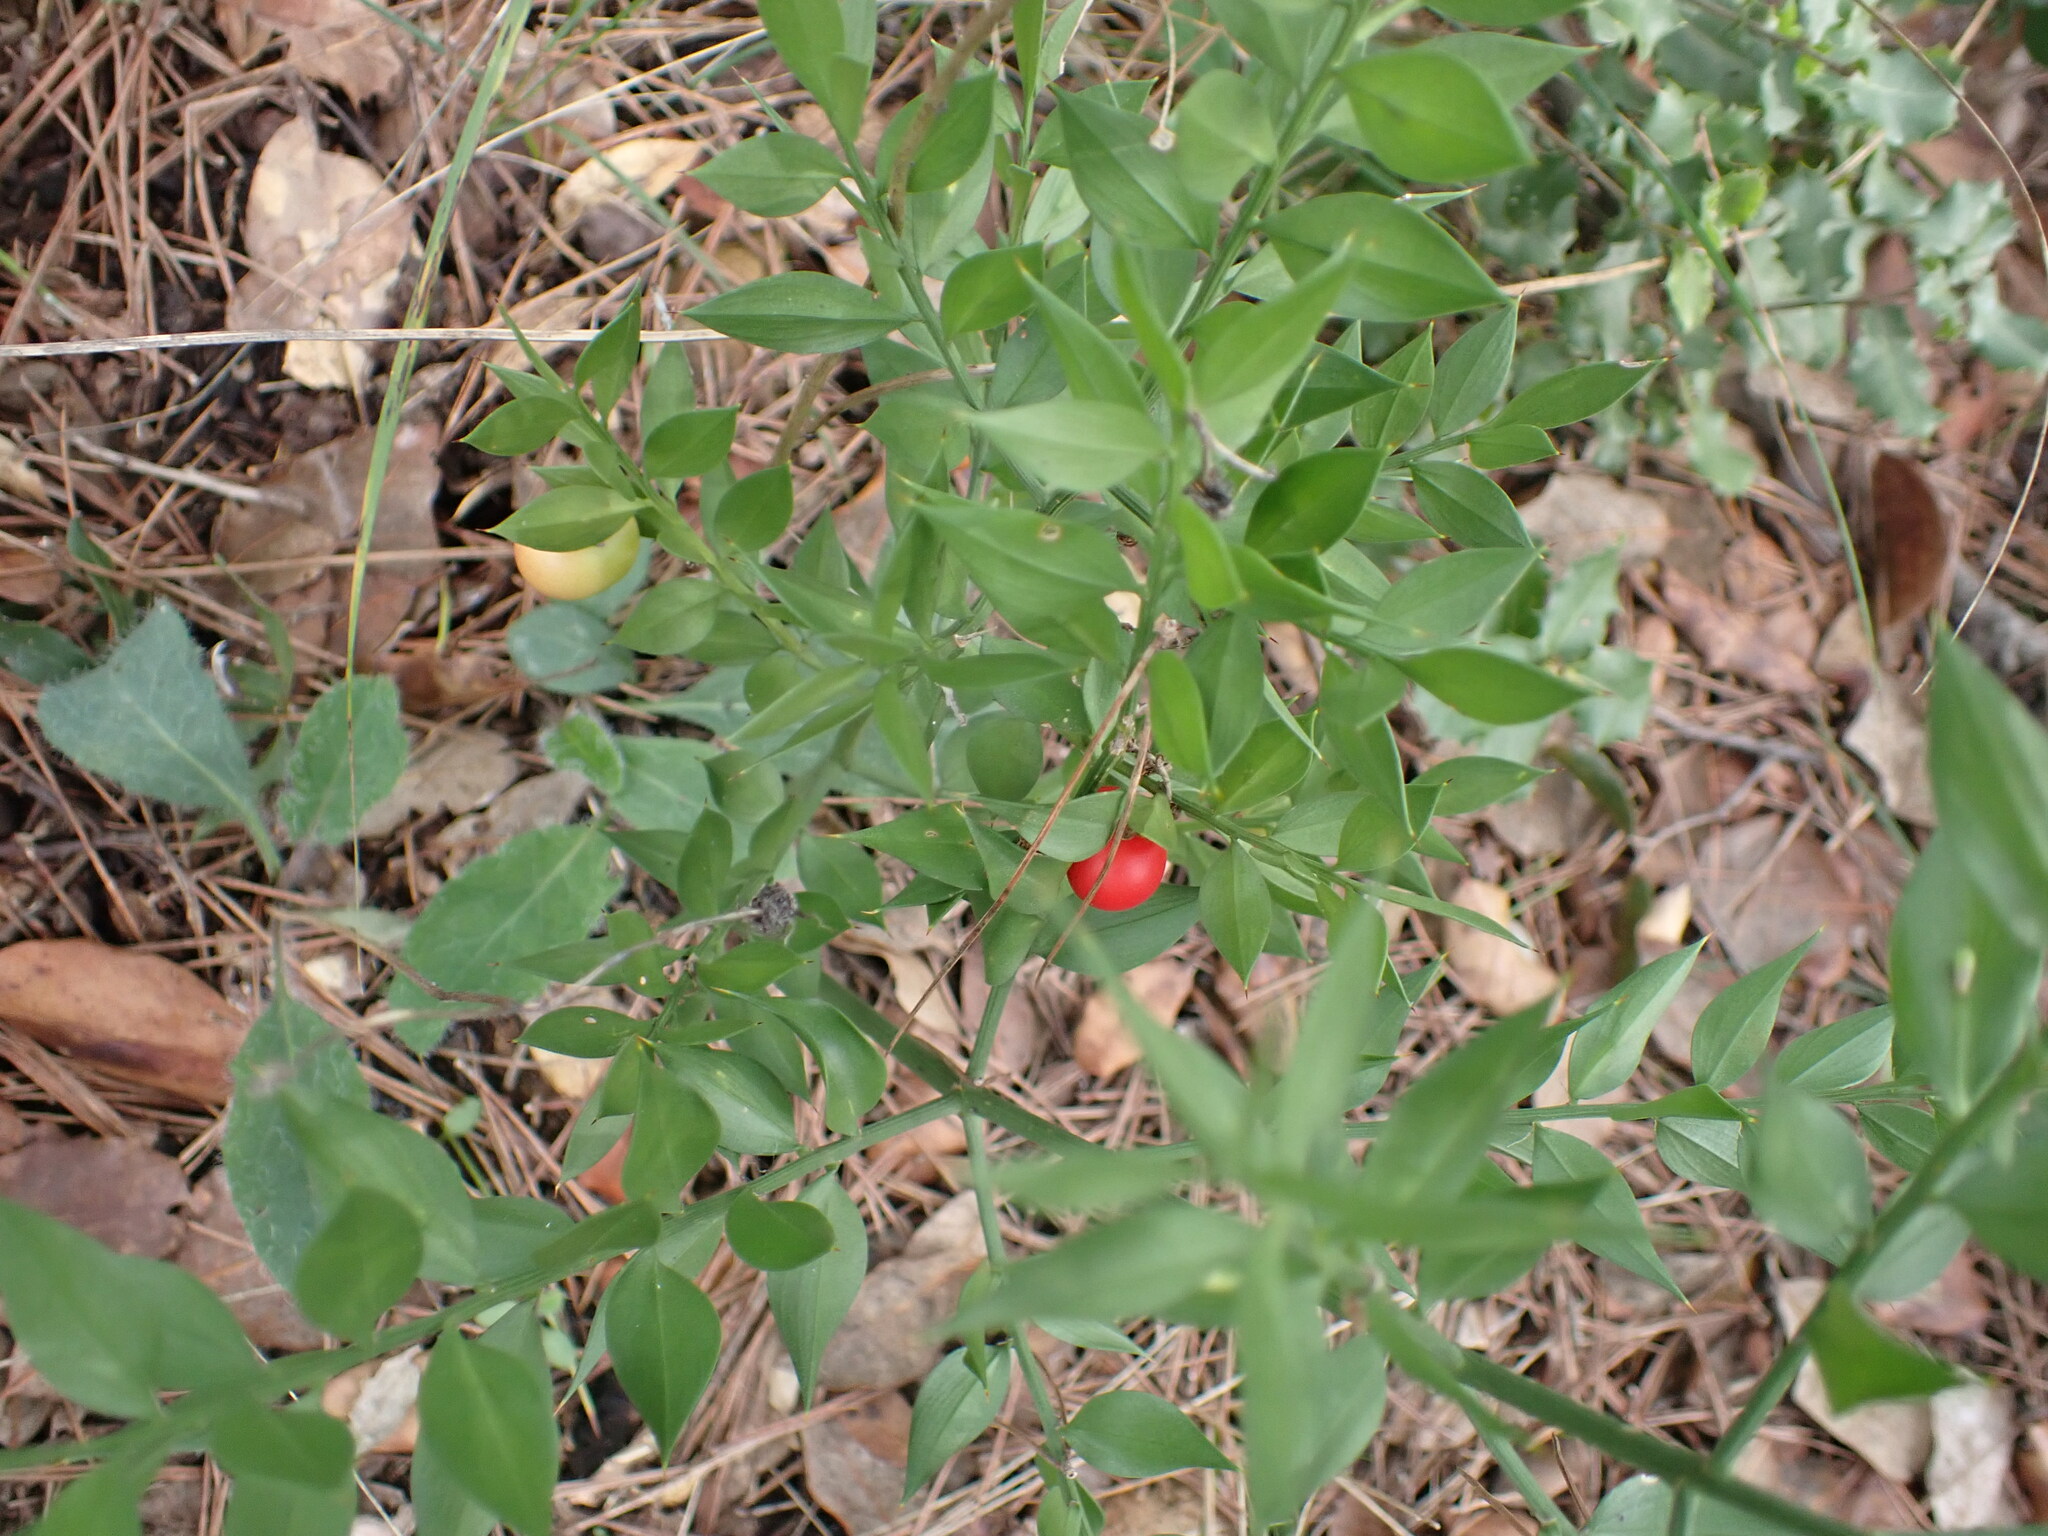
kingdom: Plantae
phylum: Tracheophyta
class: Liliopsida
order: Asparagales
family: Asparagaceae
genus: Ruscus
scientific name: Ruscus aculeatus
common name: Butcher's-broom
